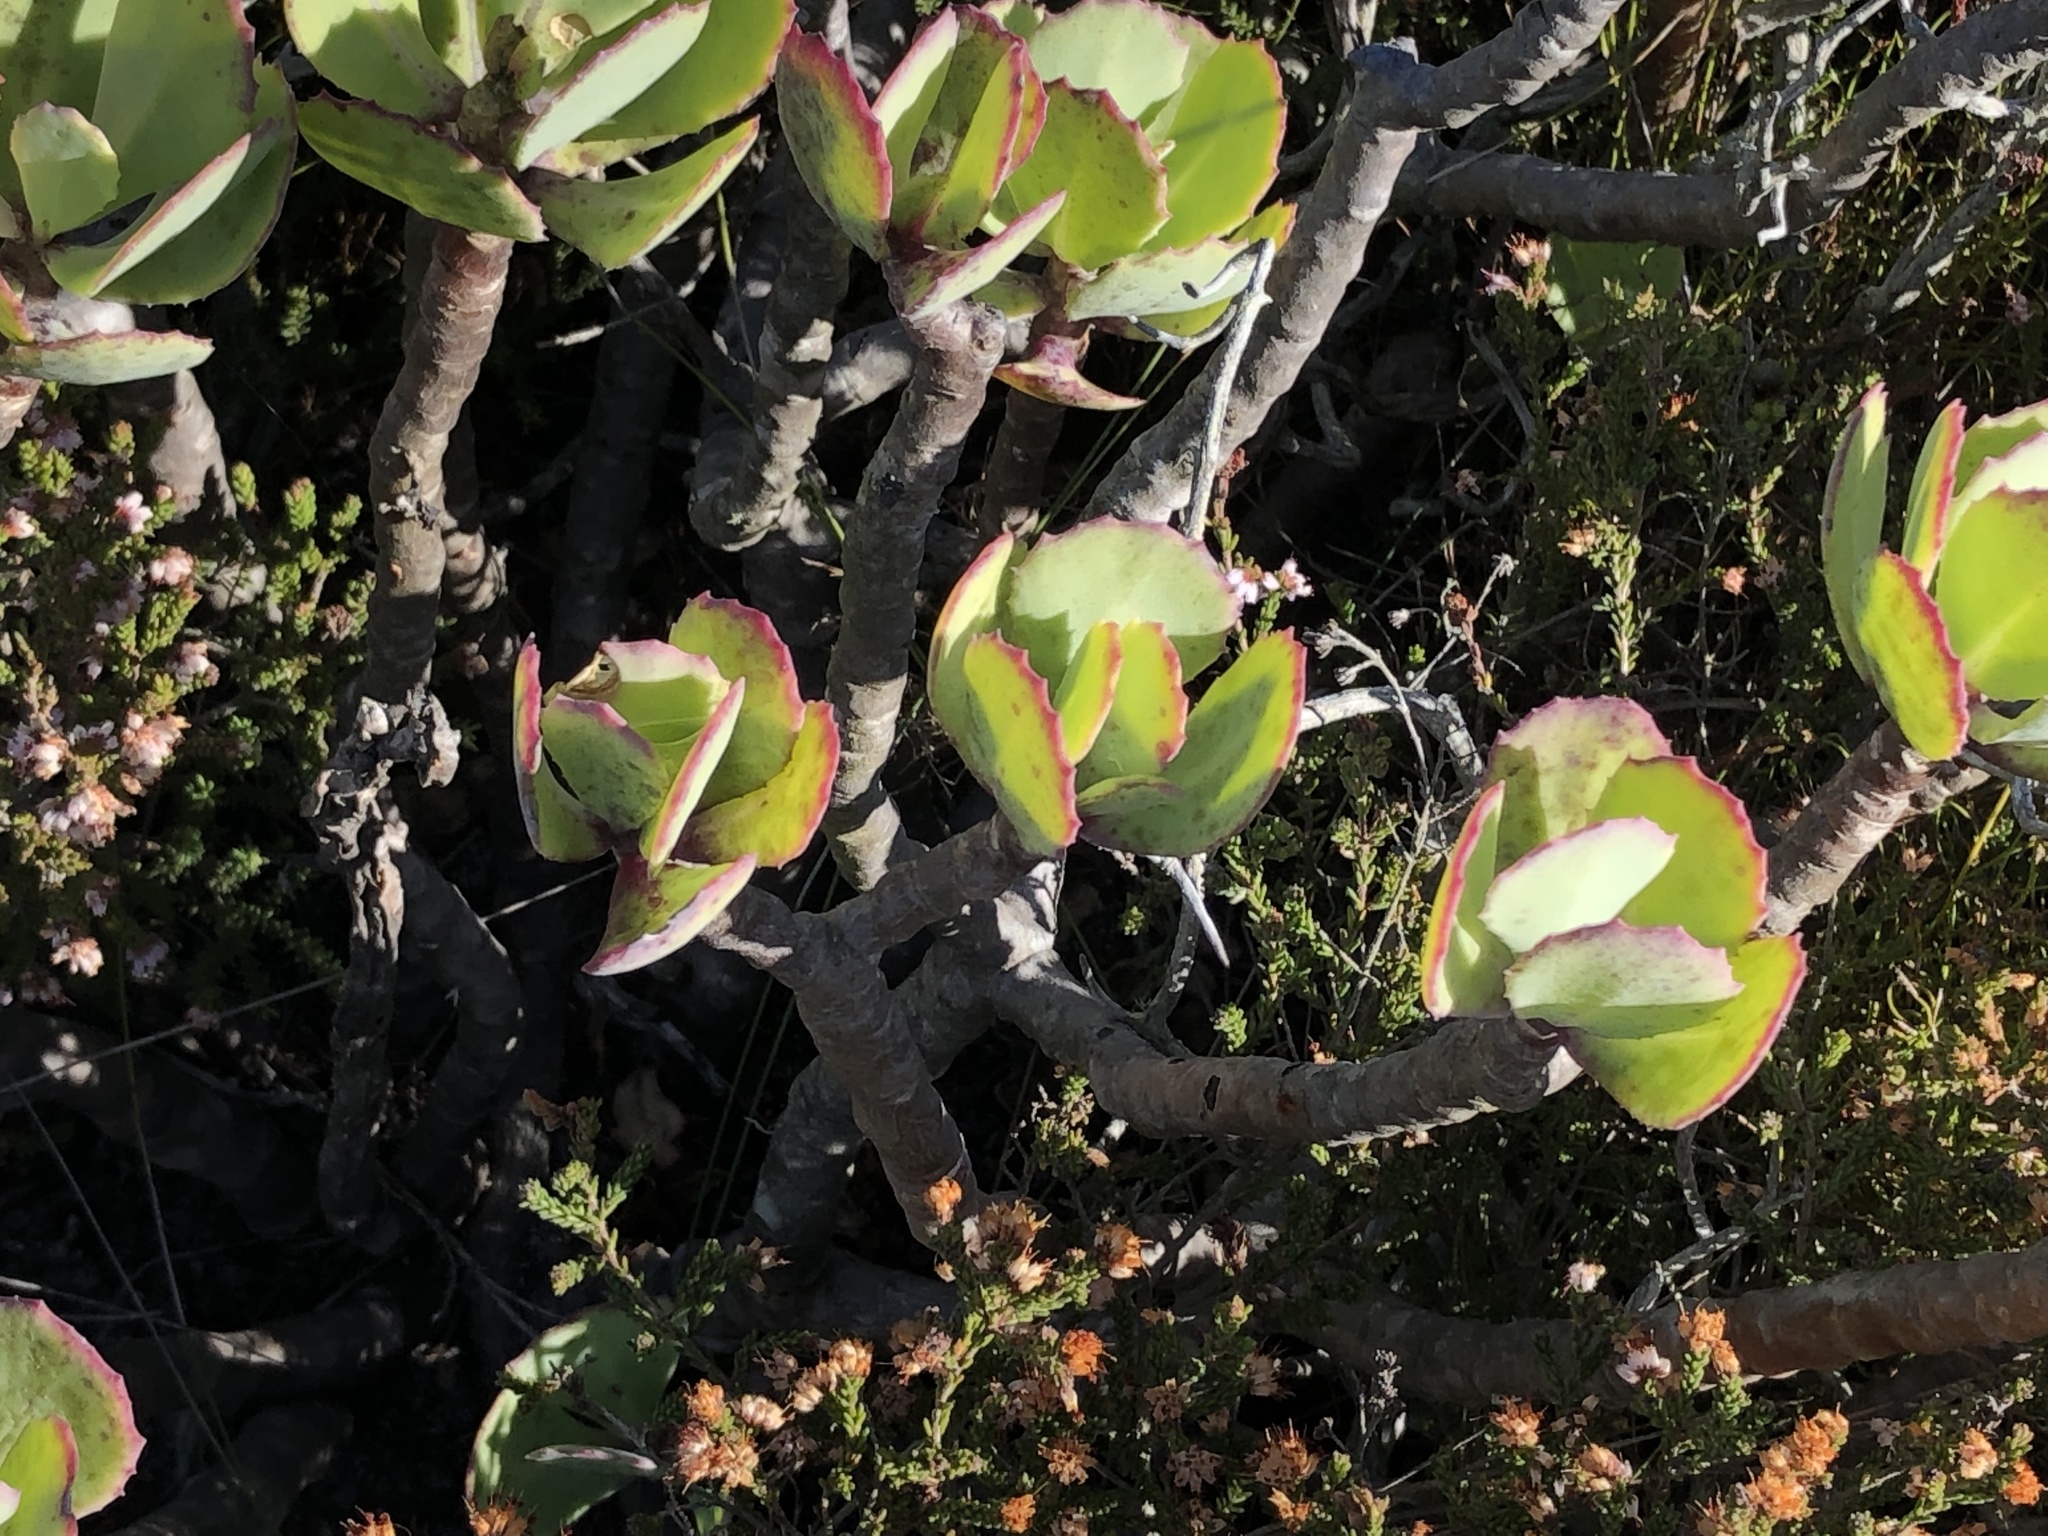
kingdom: Plantae
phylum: Tracheophyta
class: Magnoliopsida
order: Asterales
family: Asteraceae
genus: Othonna
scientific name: Othonna dentata
